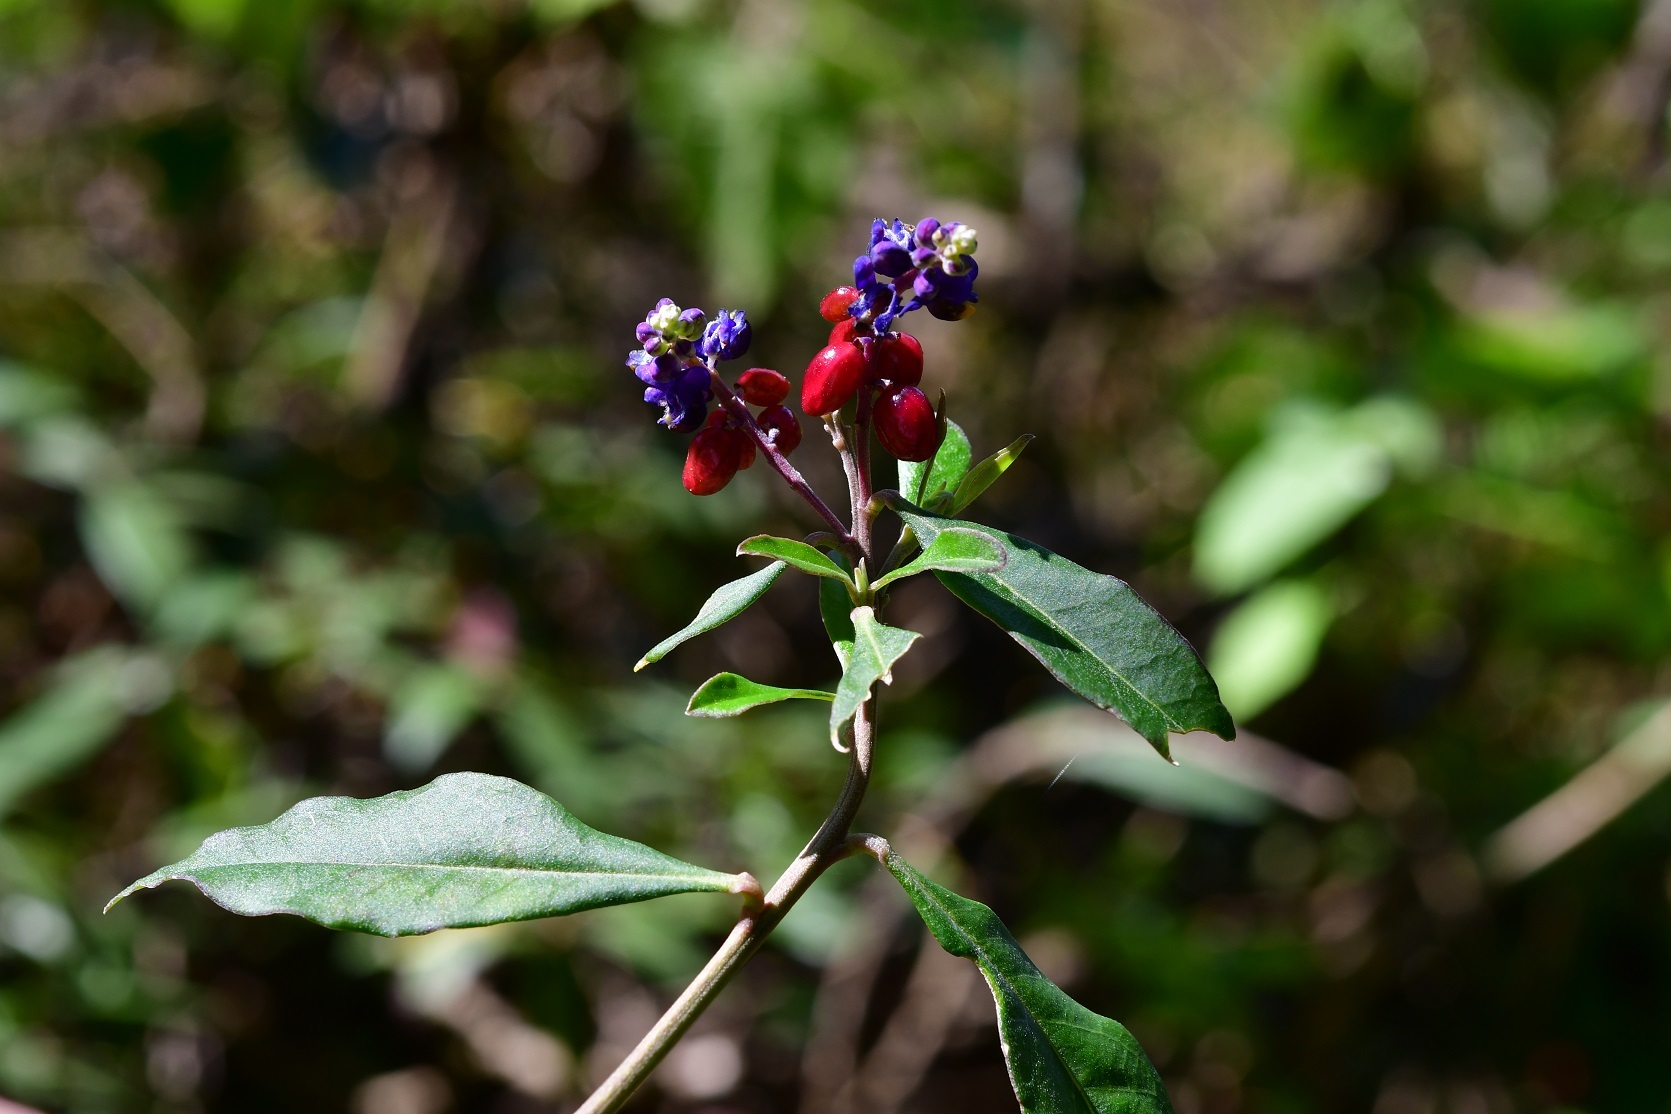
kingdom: Plantae
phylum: Tracheophyta
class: Magnoliopsida
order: Fabales
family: Polygalaceae
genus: Monnina
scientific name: Monnina xalapensis
